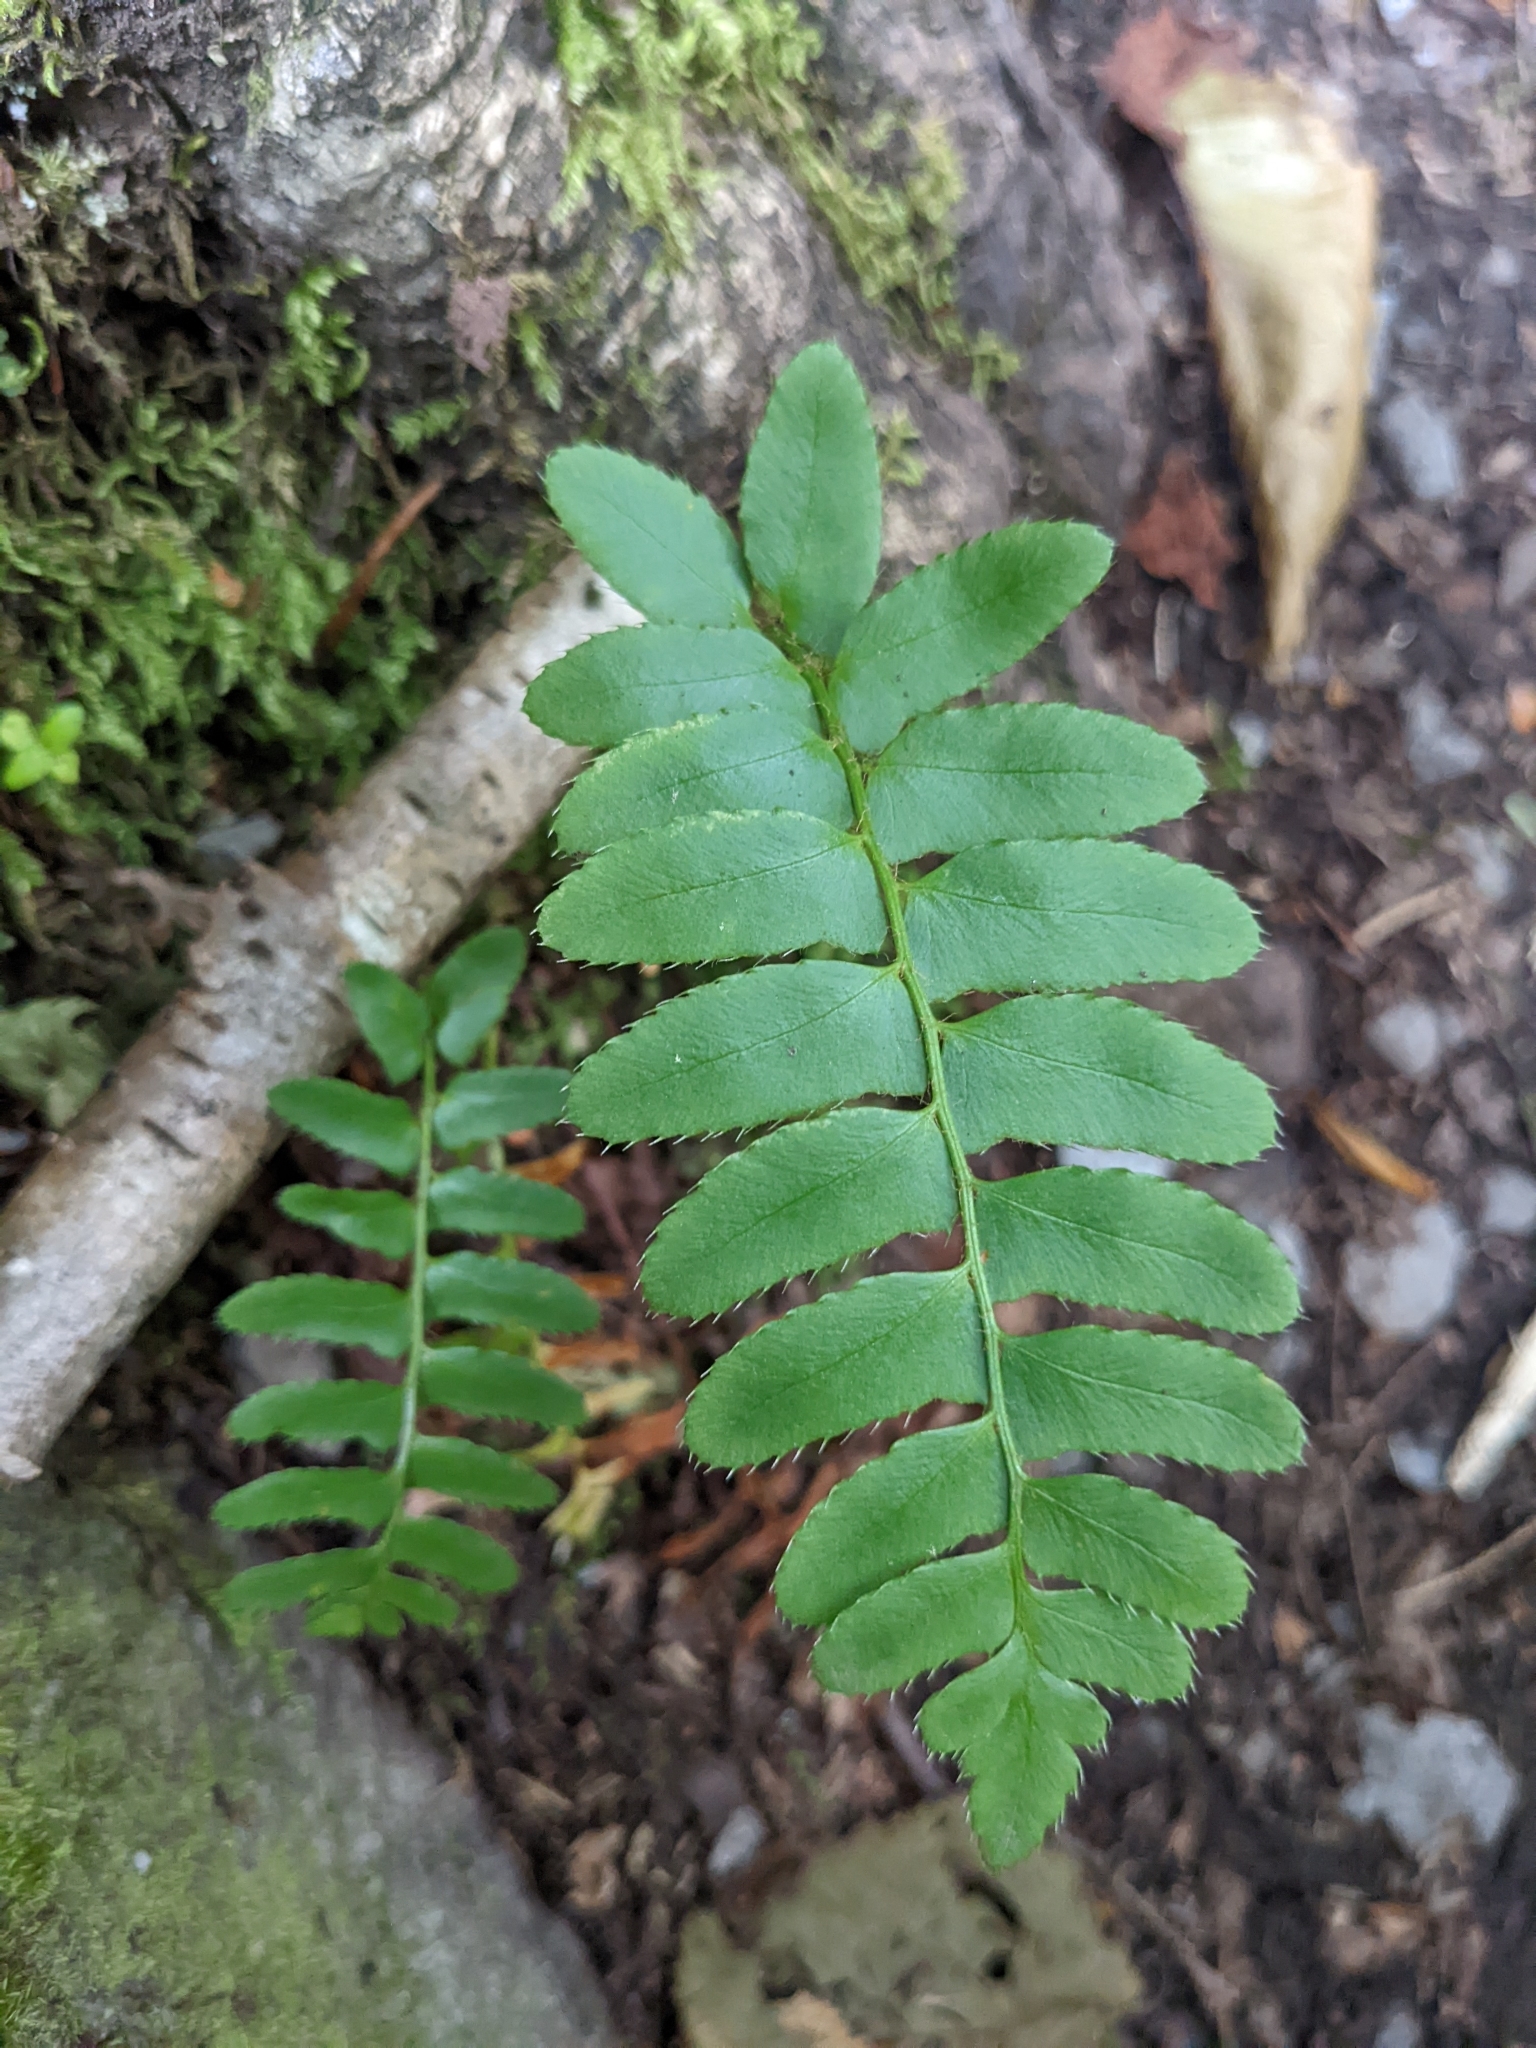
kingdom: Plantae
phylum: Tracheophyta
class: Polypodiopsida
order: Polypodiales
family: Dryopteridaceae
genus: Polystichum
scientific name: Polystichum acrostichoides
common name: Christmas fern
